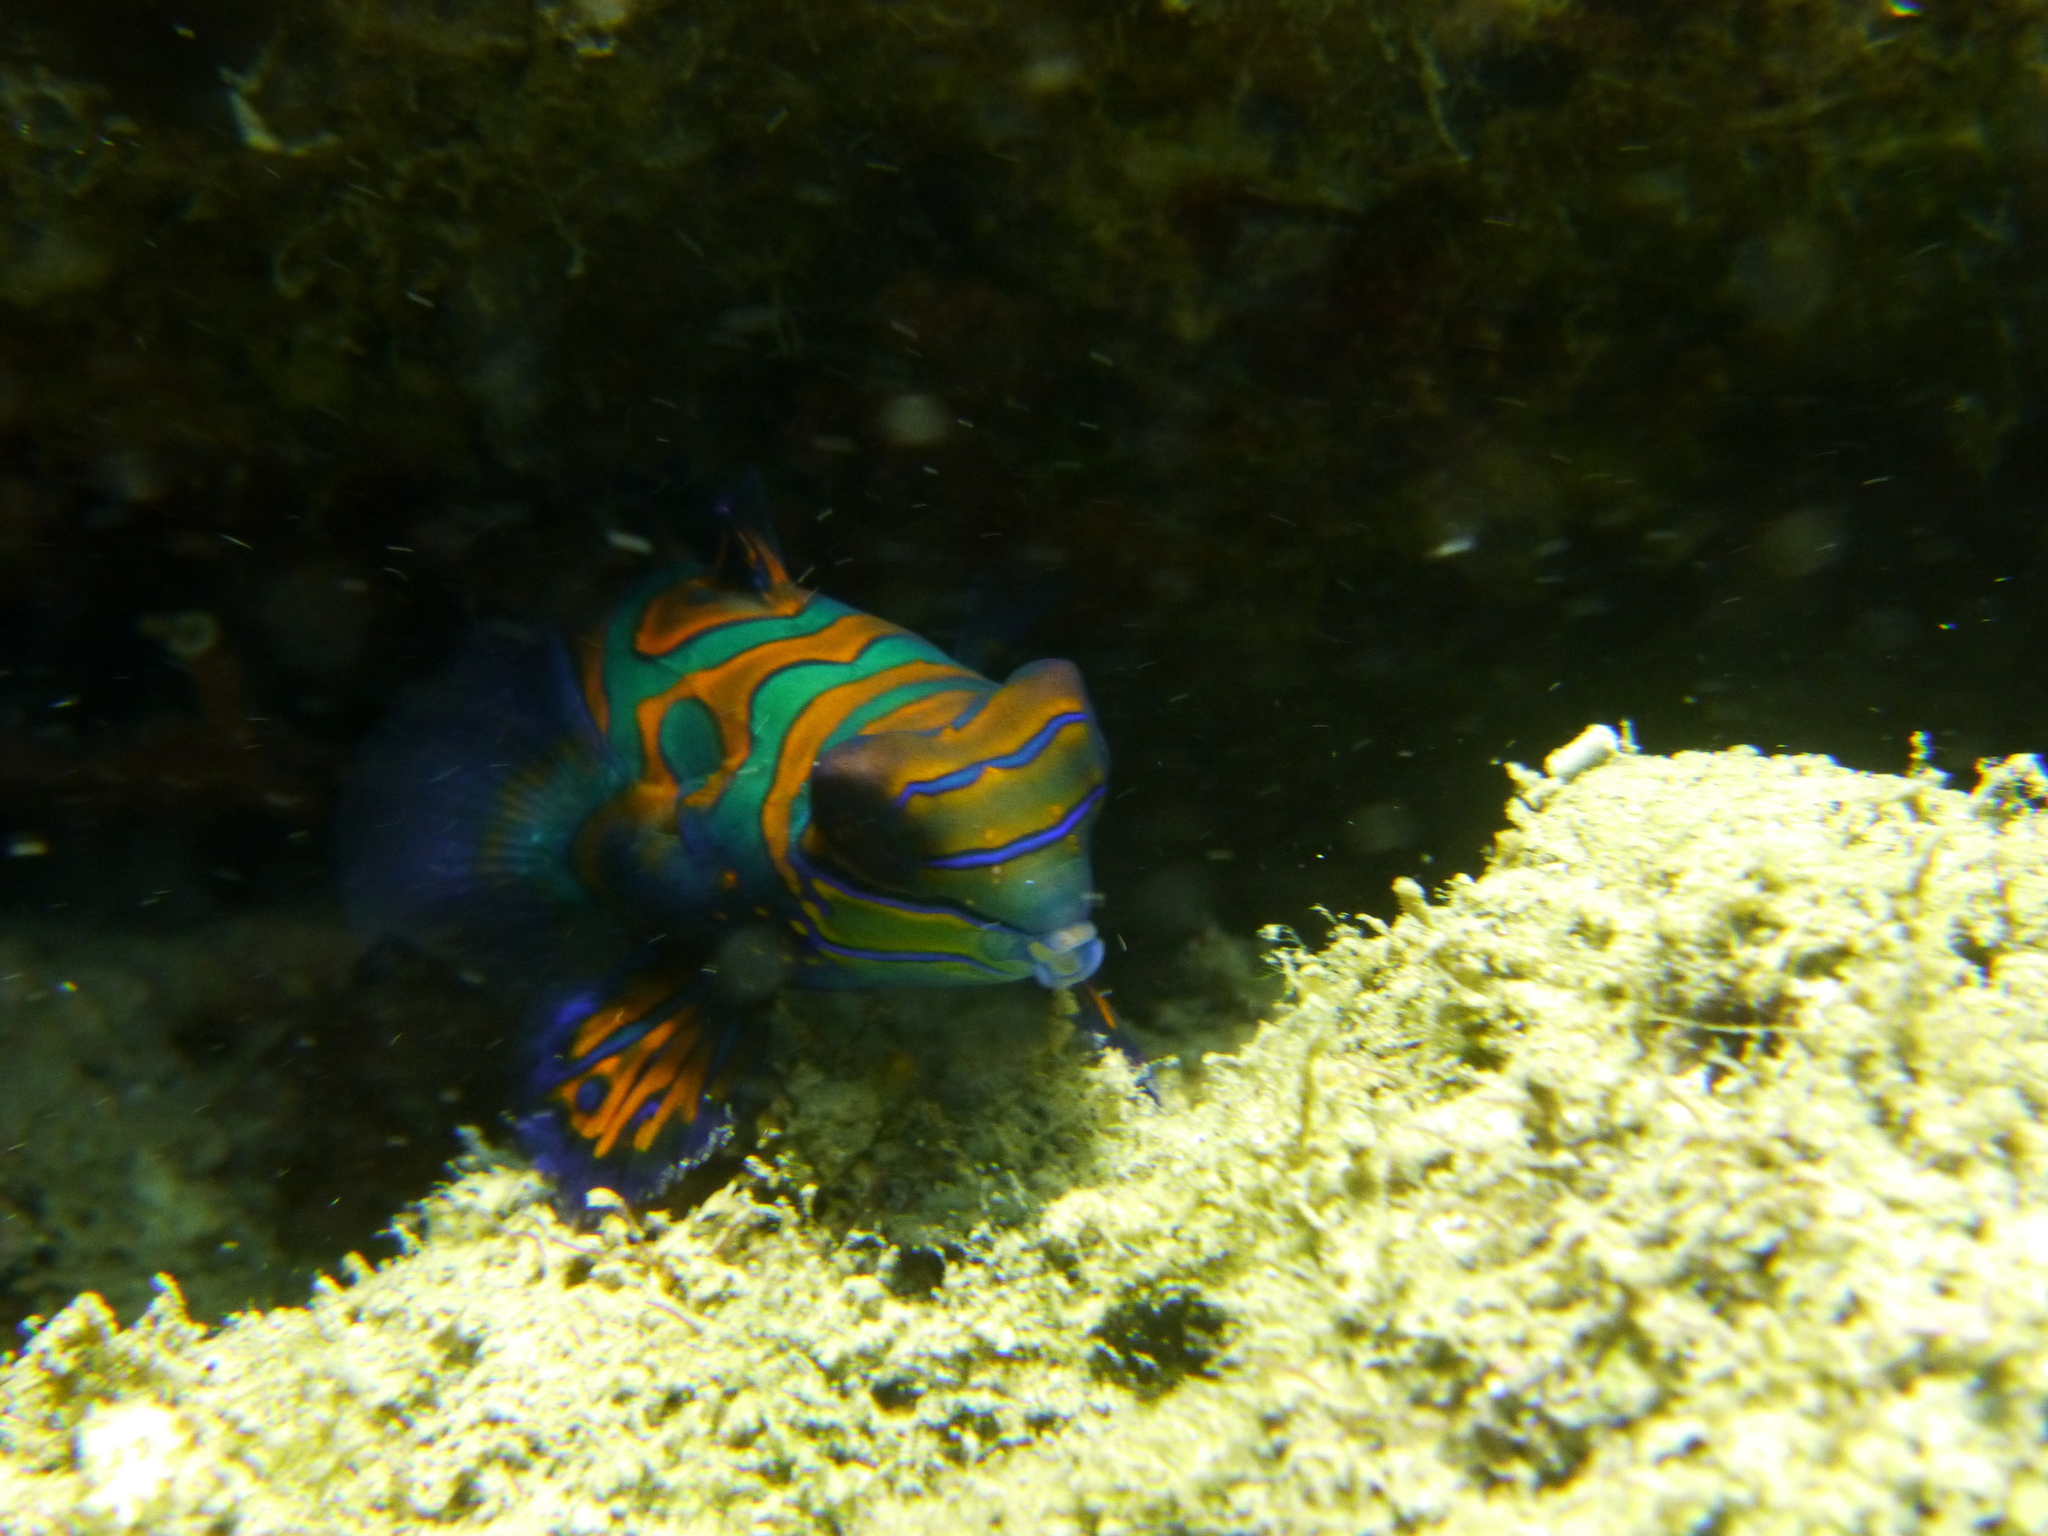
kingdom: Animalia
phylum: Chordata
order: Perciformes
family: Callionymidae
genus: Synchiropus
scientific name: Synchiropus splendidus
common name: Mandarinfish
